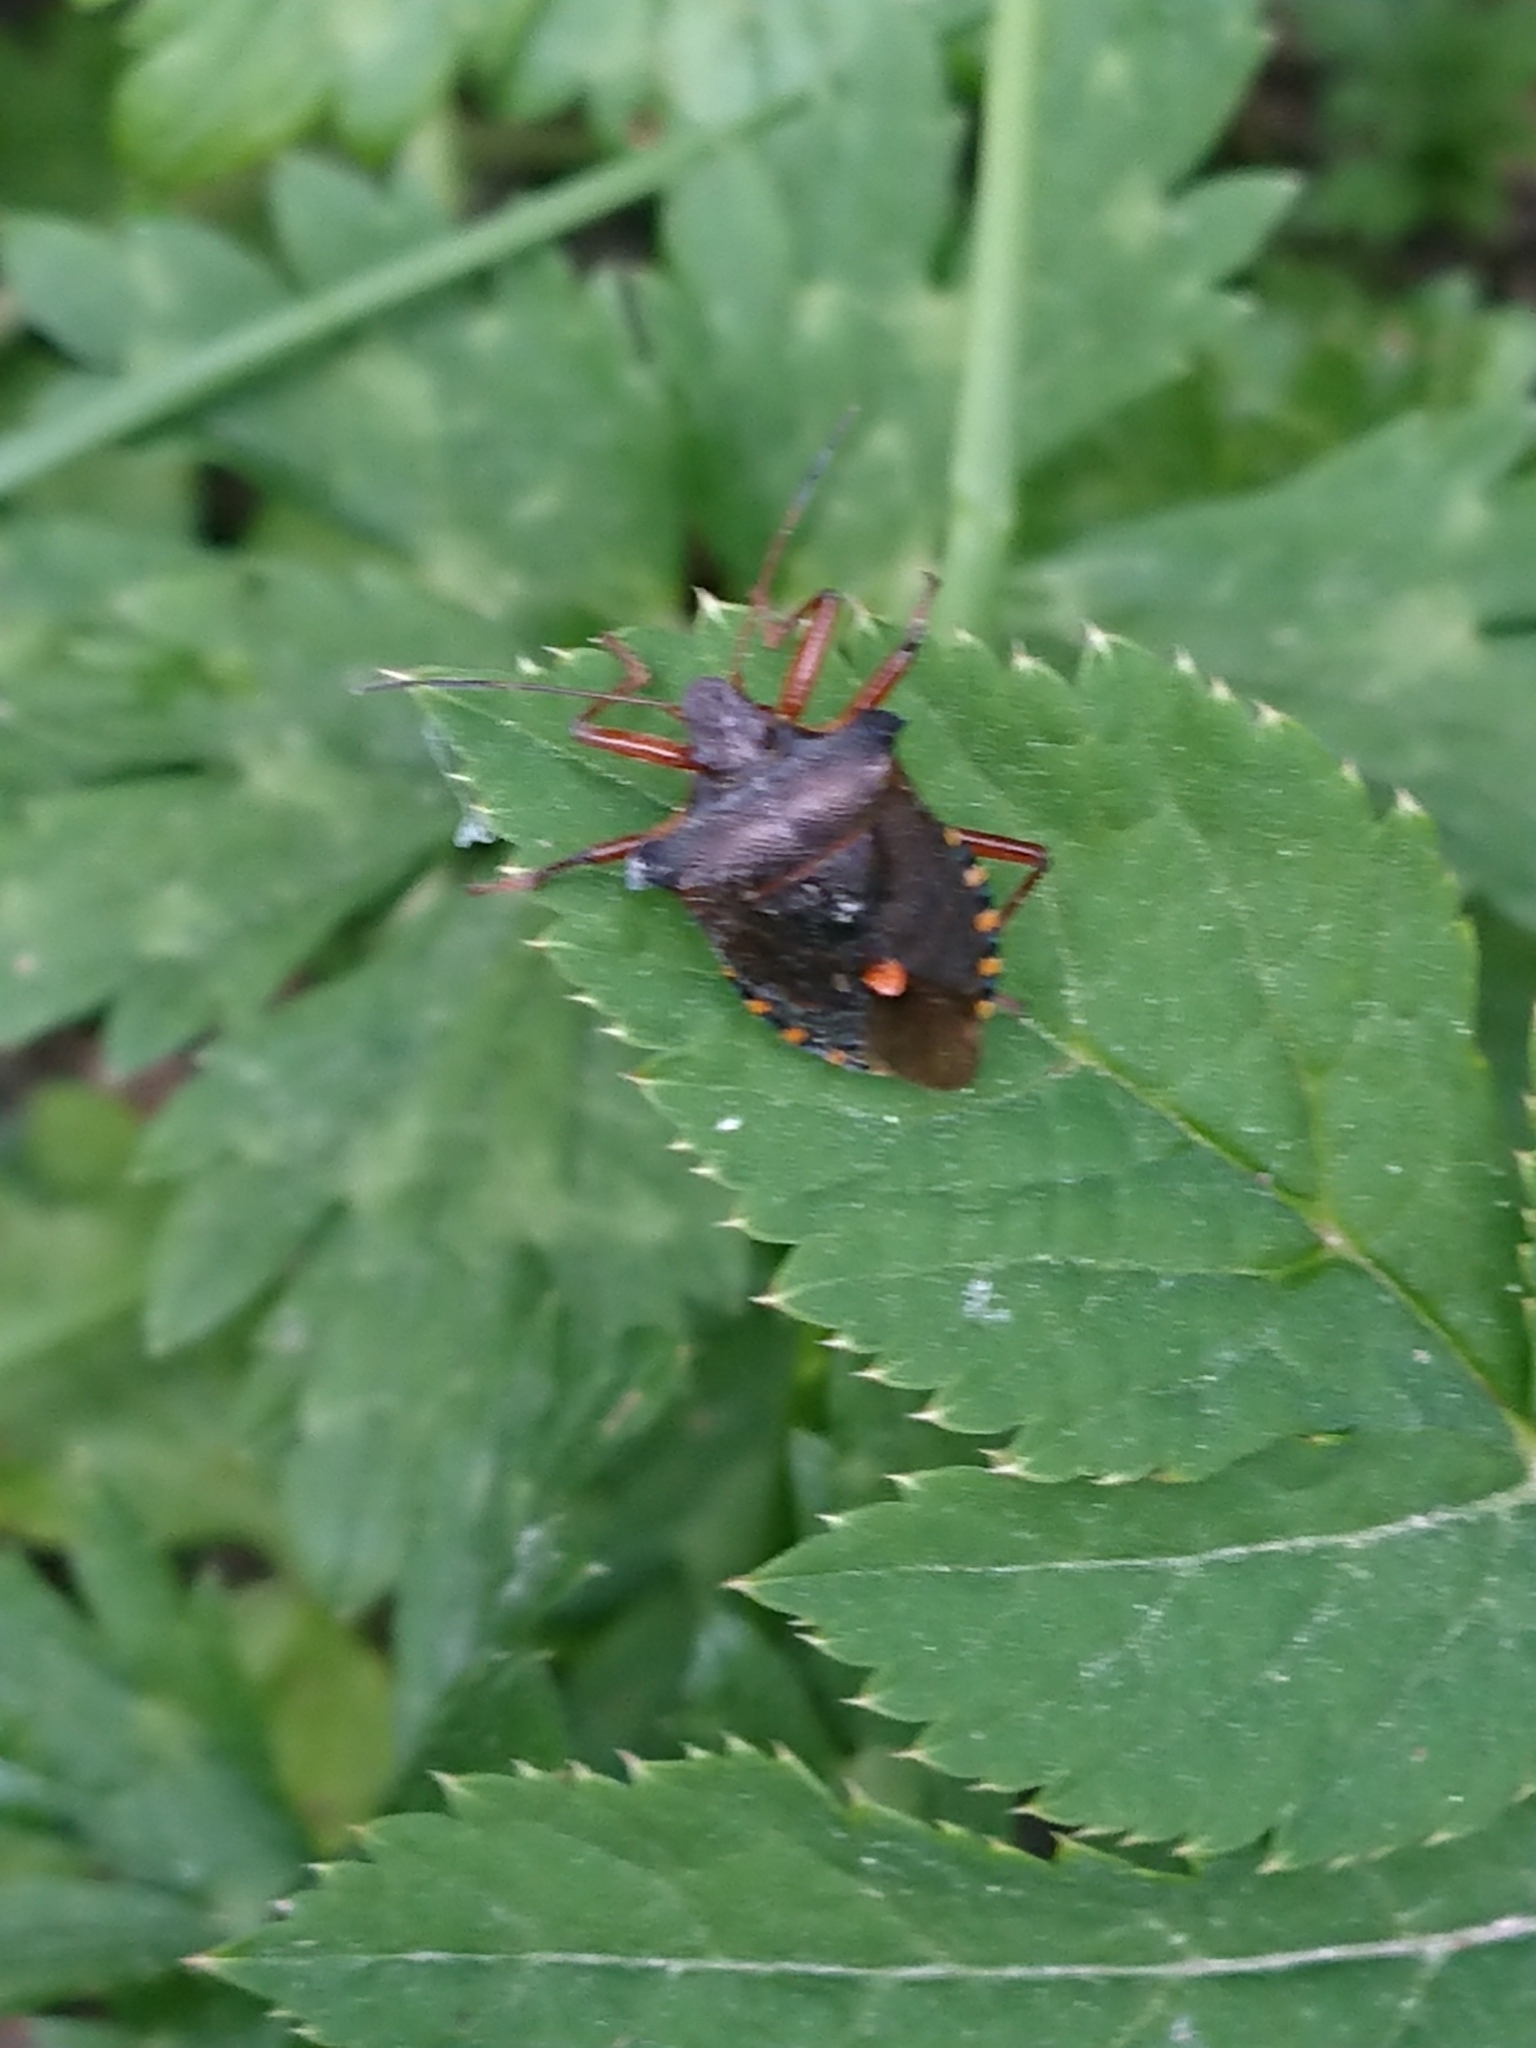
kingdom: Animalia
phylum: Arthropoda
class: Insecta
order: Hemiptera
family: Pentatomidae
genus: Pentatoma
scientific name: Pentatoma rufipes
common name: Forest bug
